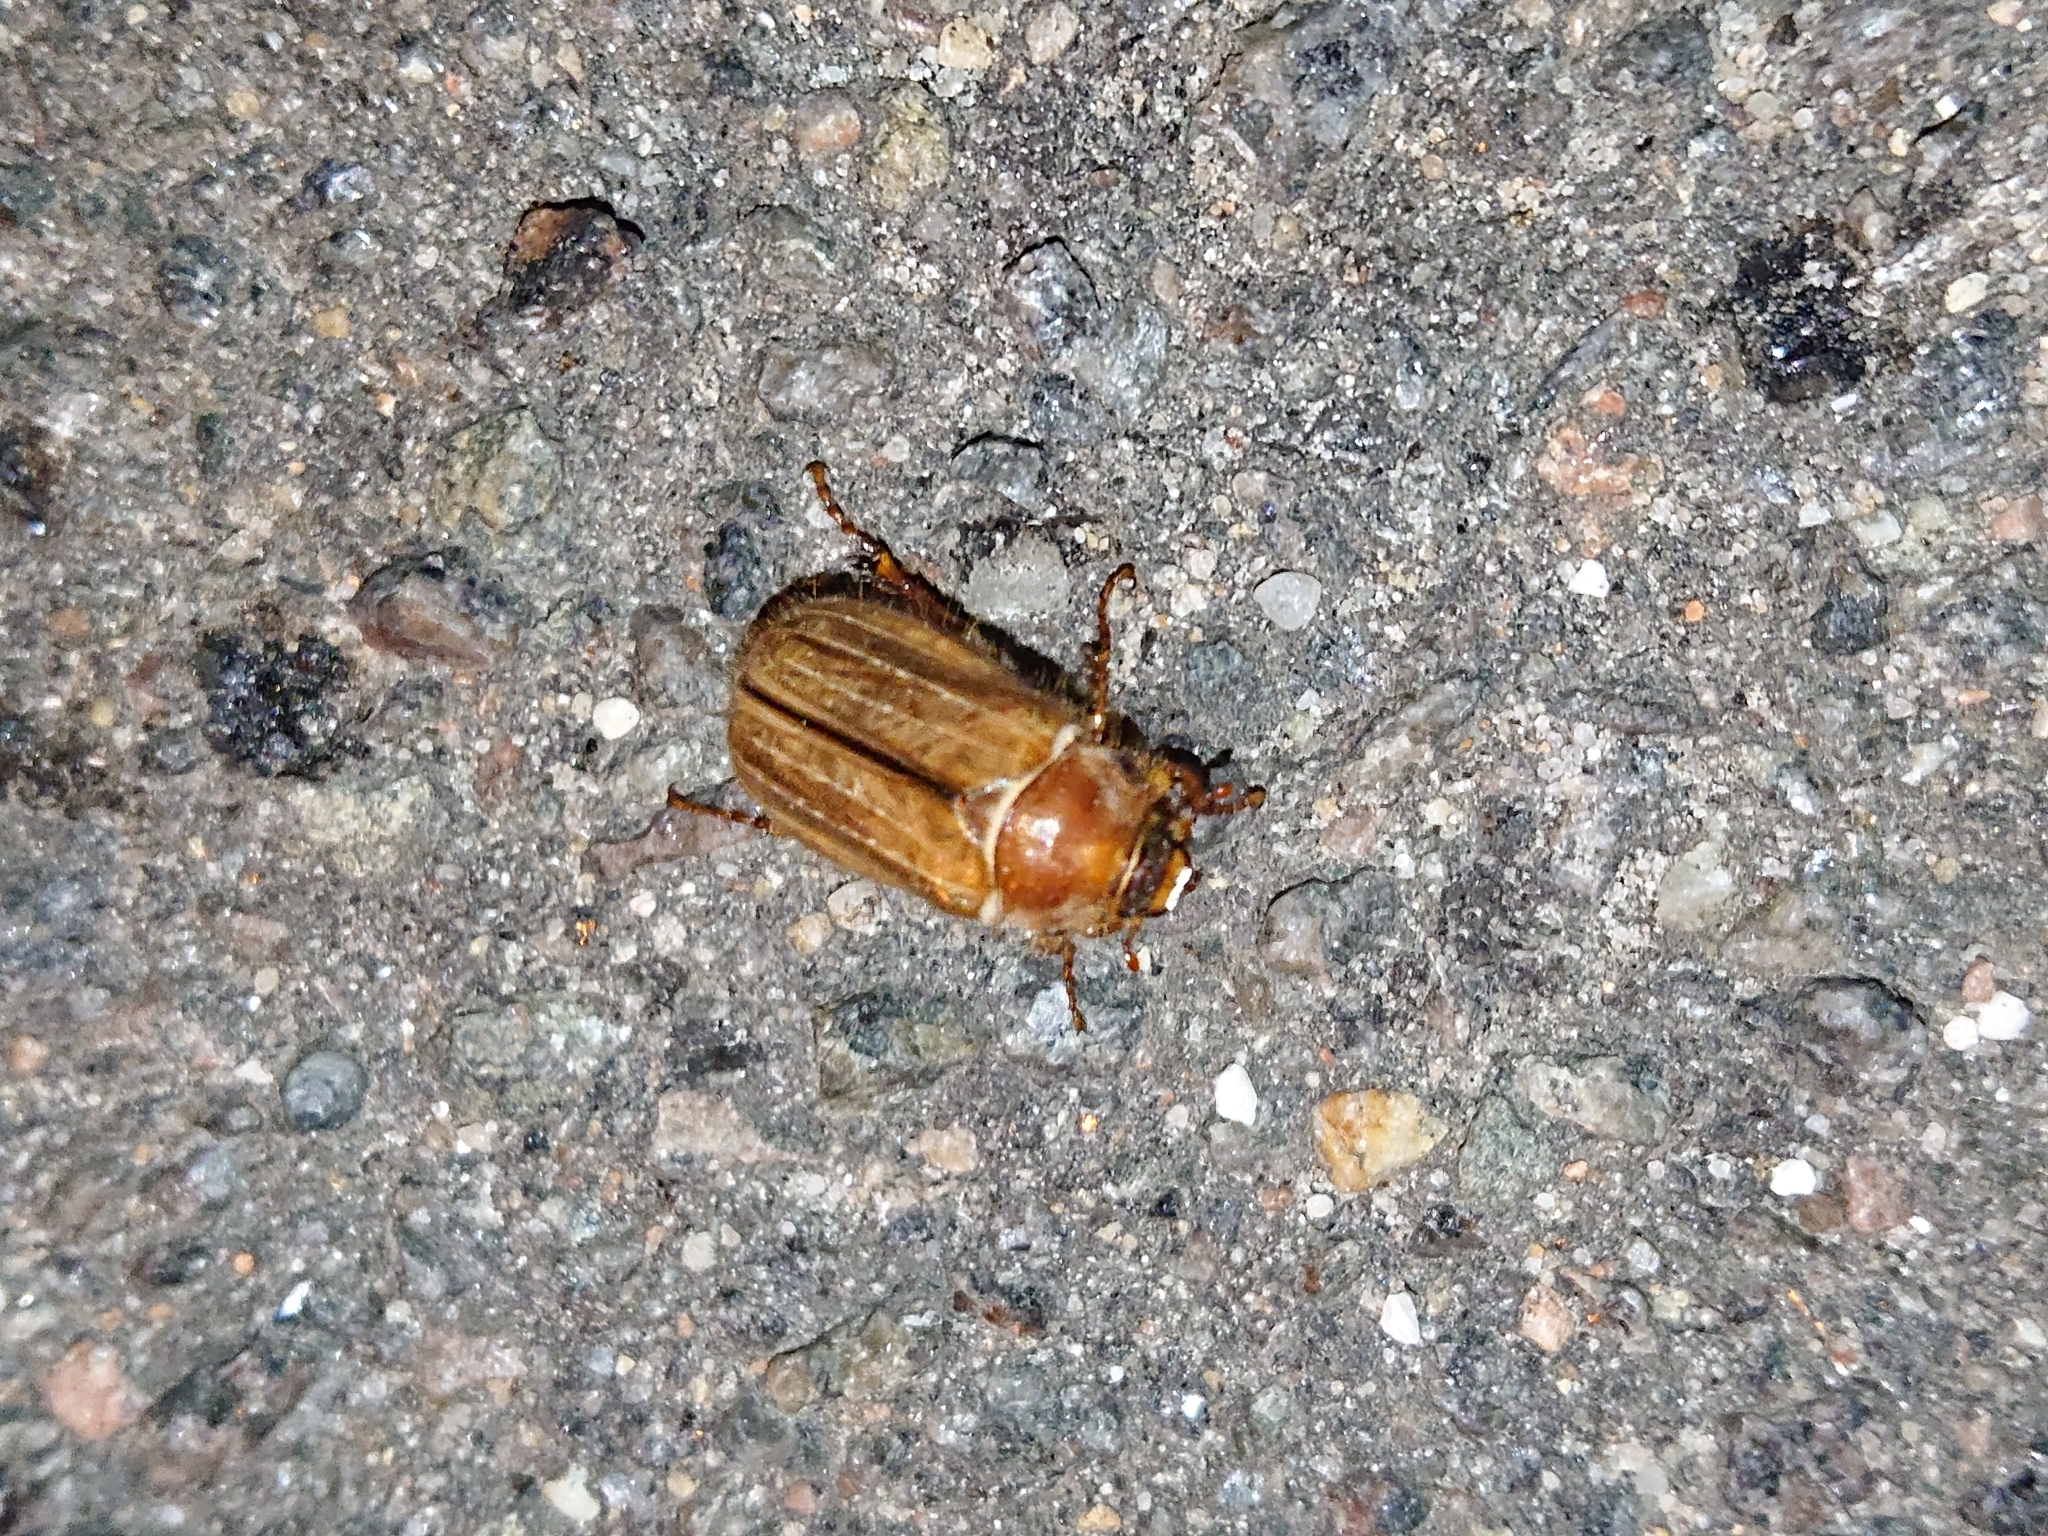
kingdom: Animalia
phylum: Arthropoda
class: Insecta
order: Coleoptera
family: Scarabaeidae
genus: Amphimallon
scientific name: Amphimallon solstitiale
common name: Summer chafer
